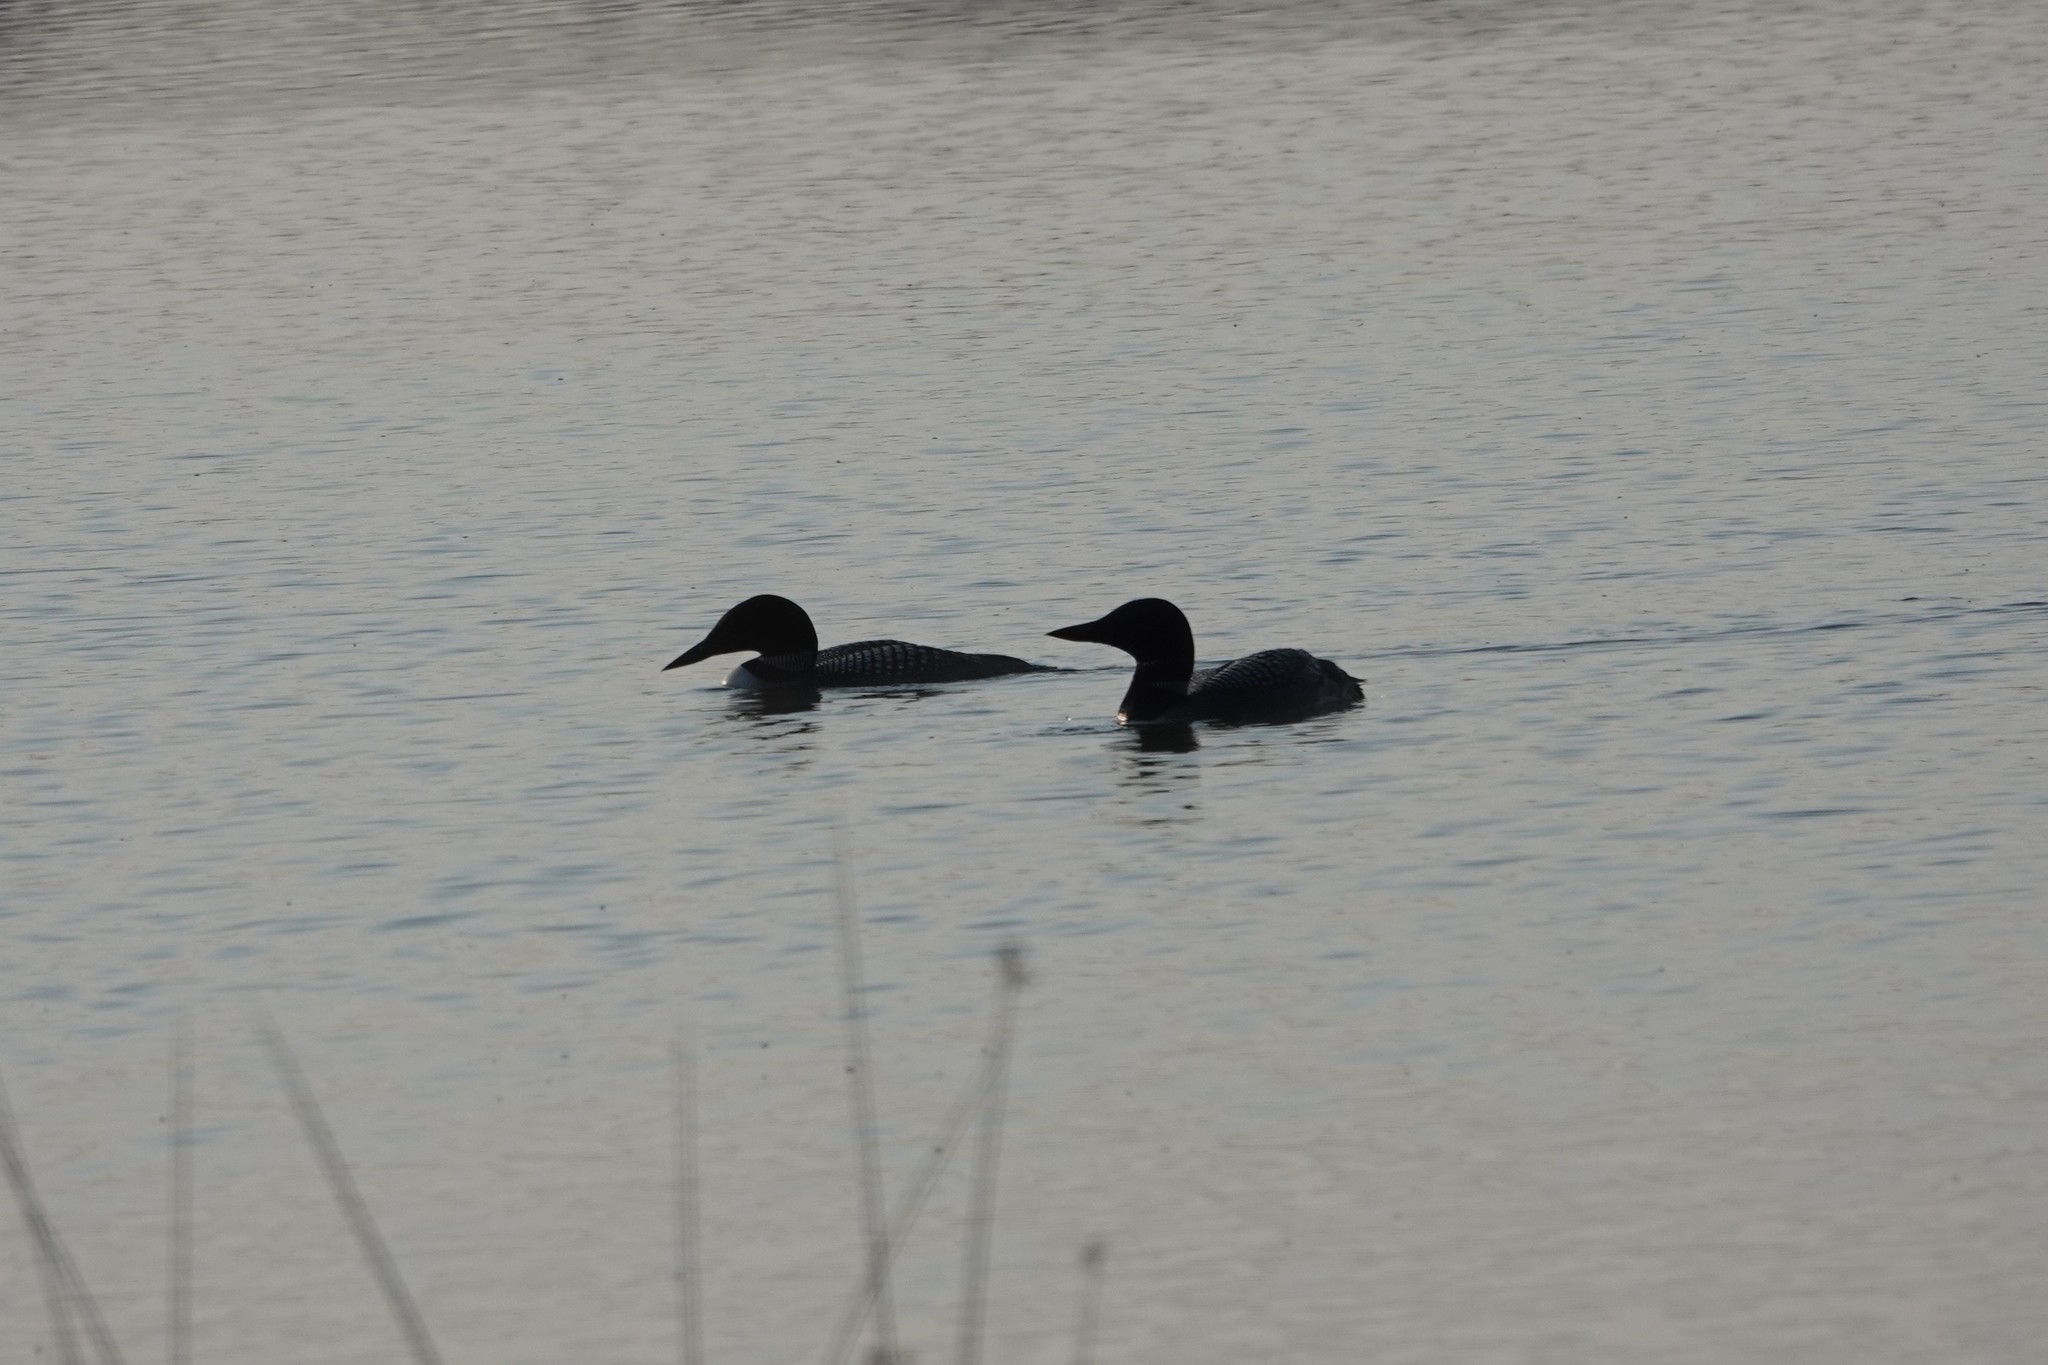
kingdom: Animalia
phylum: Chordata
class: Aves
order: Gaviiformes
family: Gaviidae
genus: Gavia
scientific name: Gavia immer
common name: Common loon
